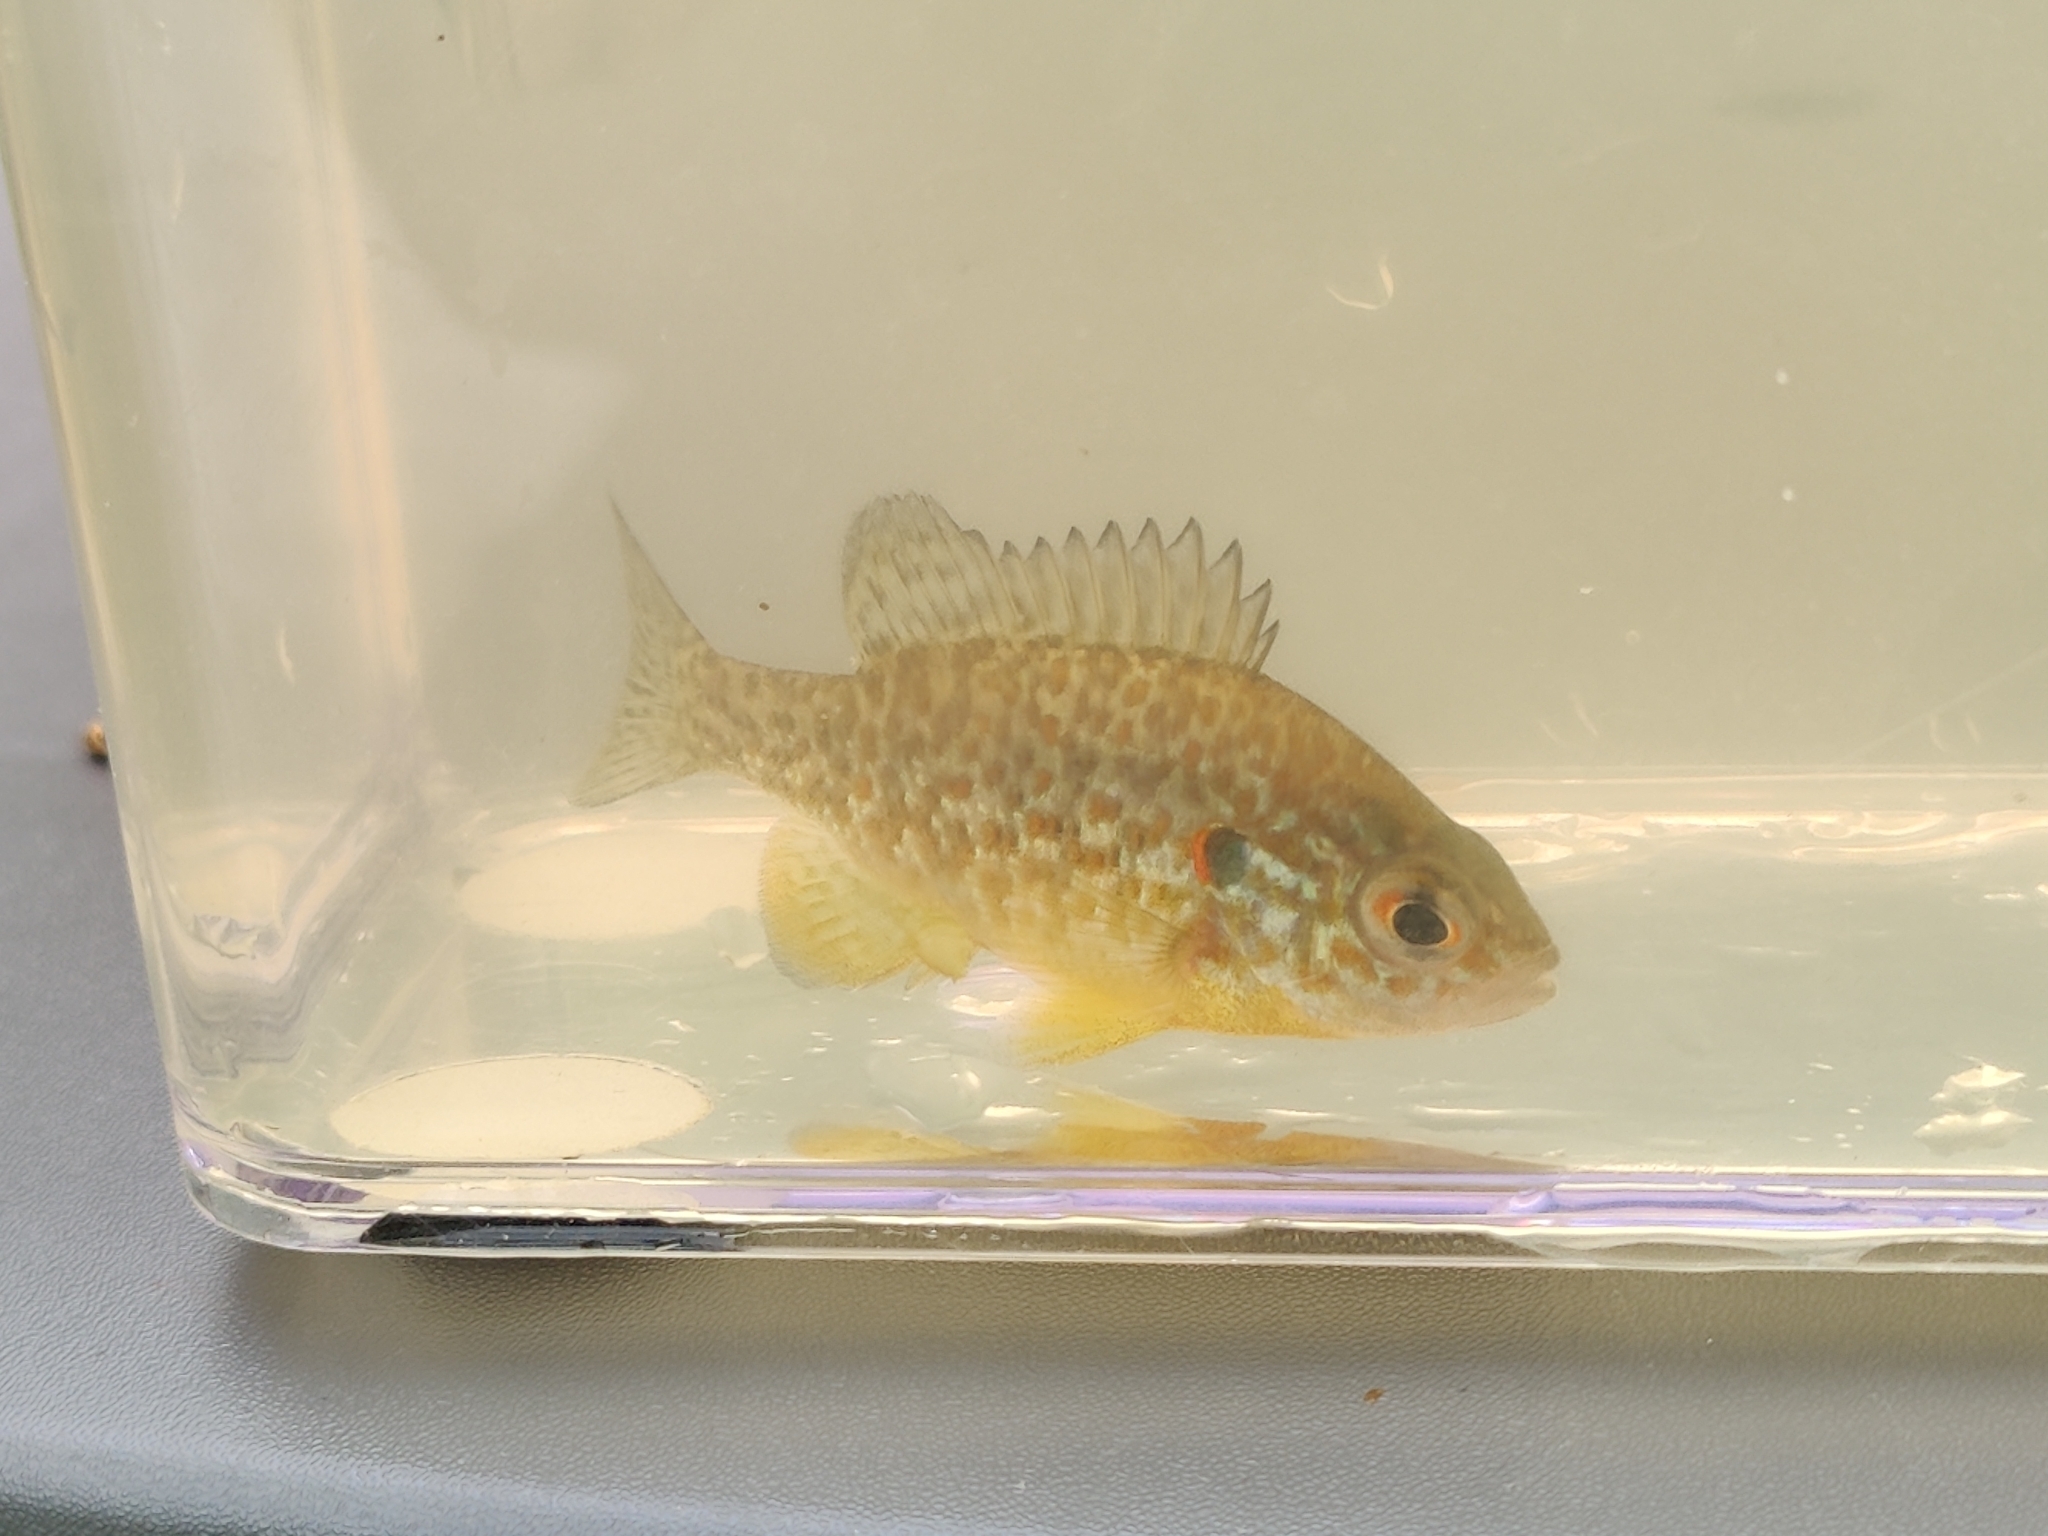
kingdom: Animalia
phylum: Chordata
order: Perciformes
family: Centrarchidae
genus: Lepomis
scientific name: Lepomis gibbosus
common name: Pumpkinseed
